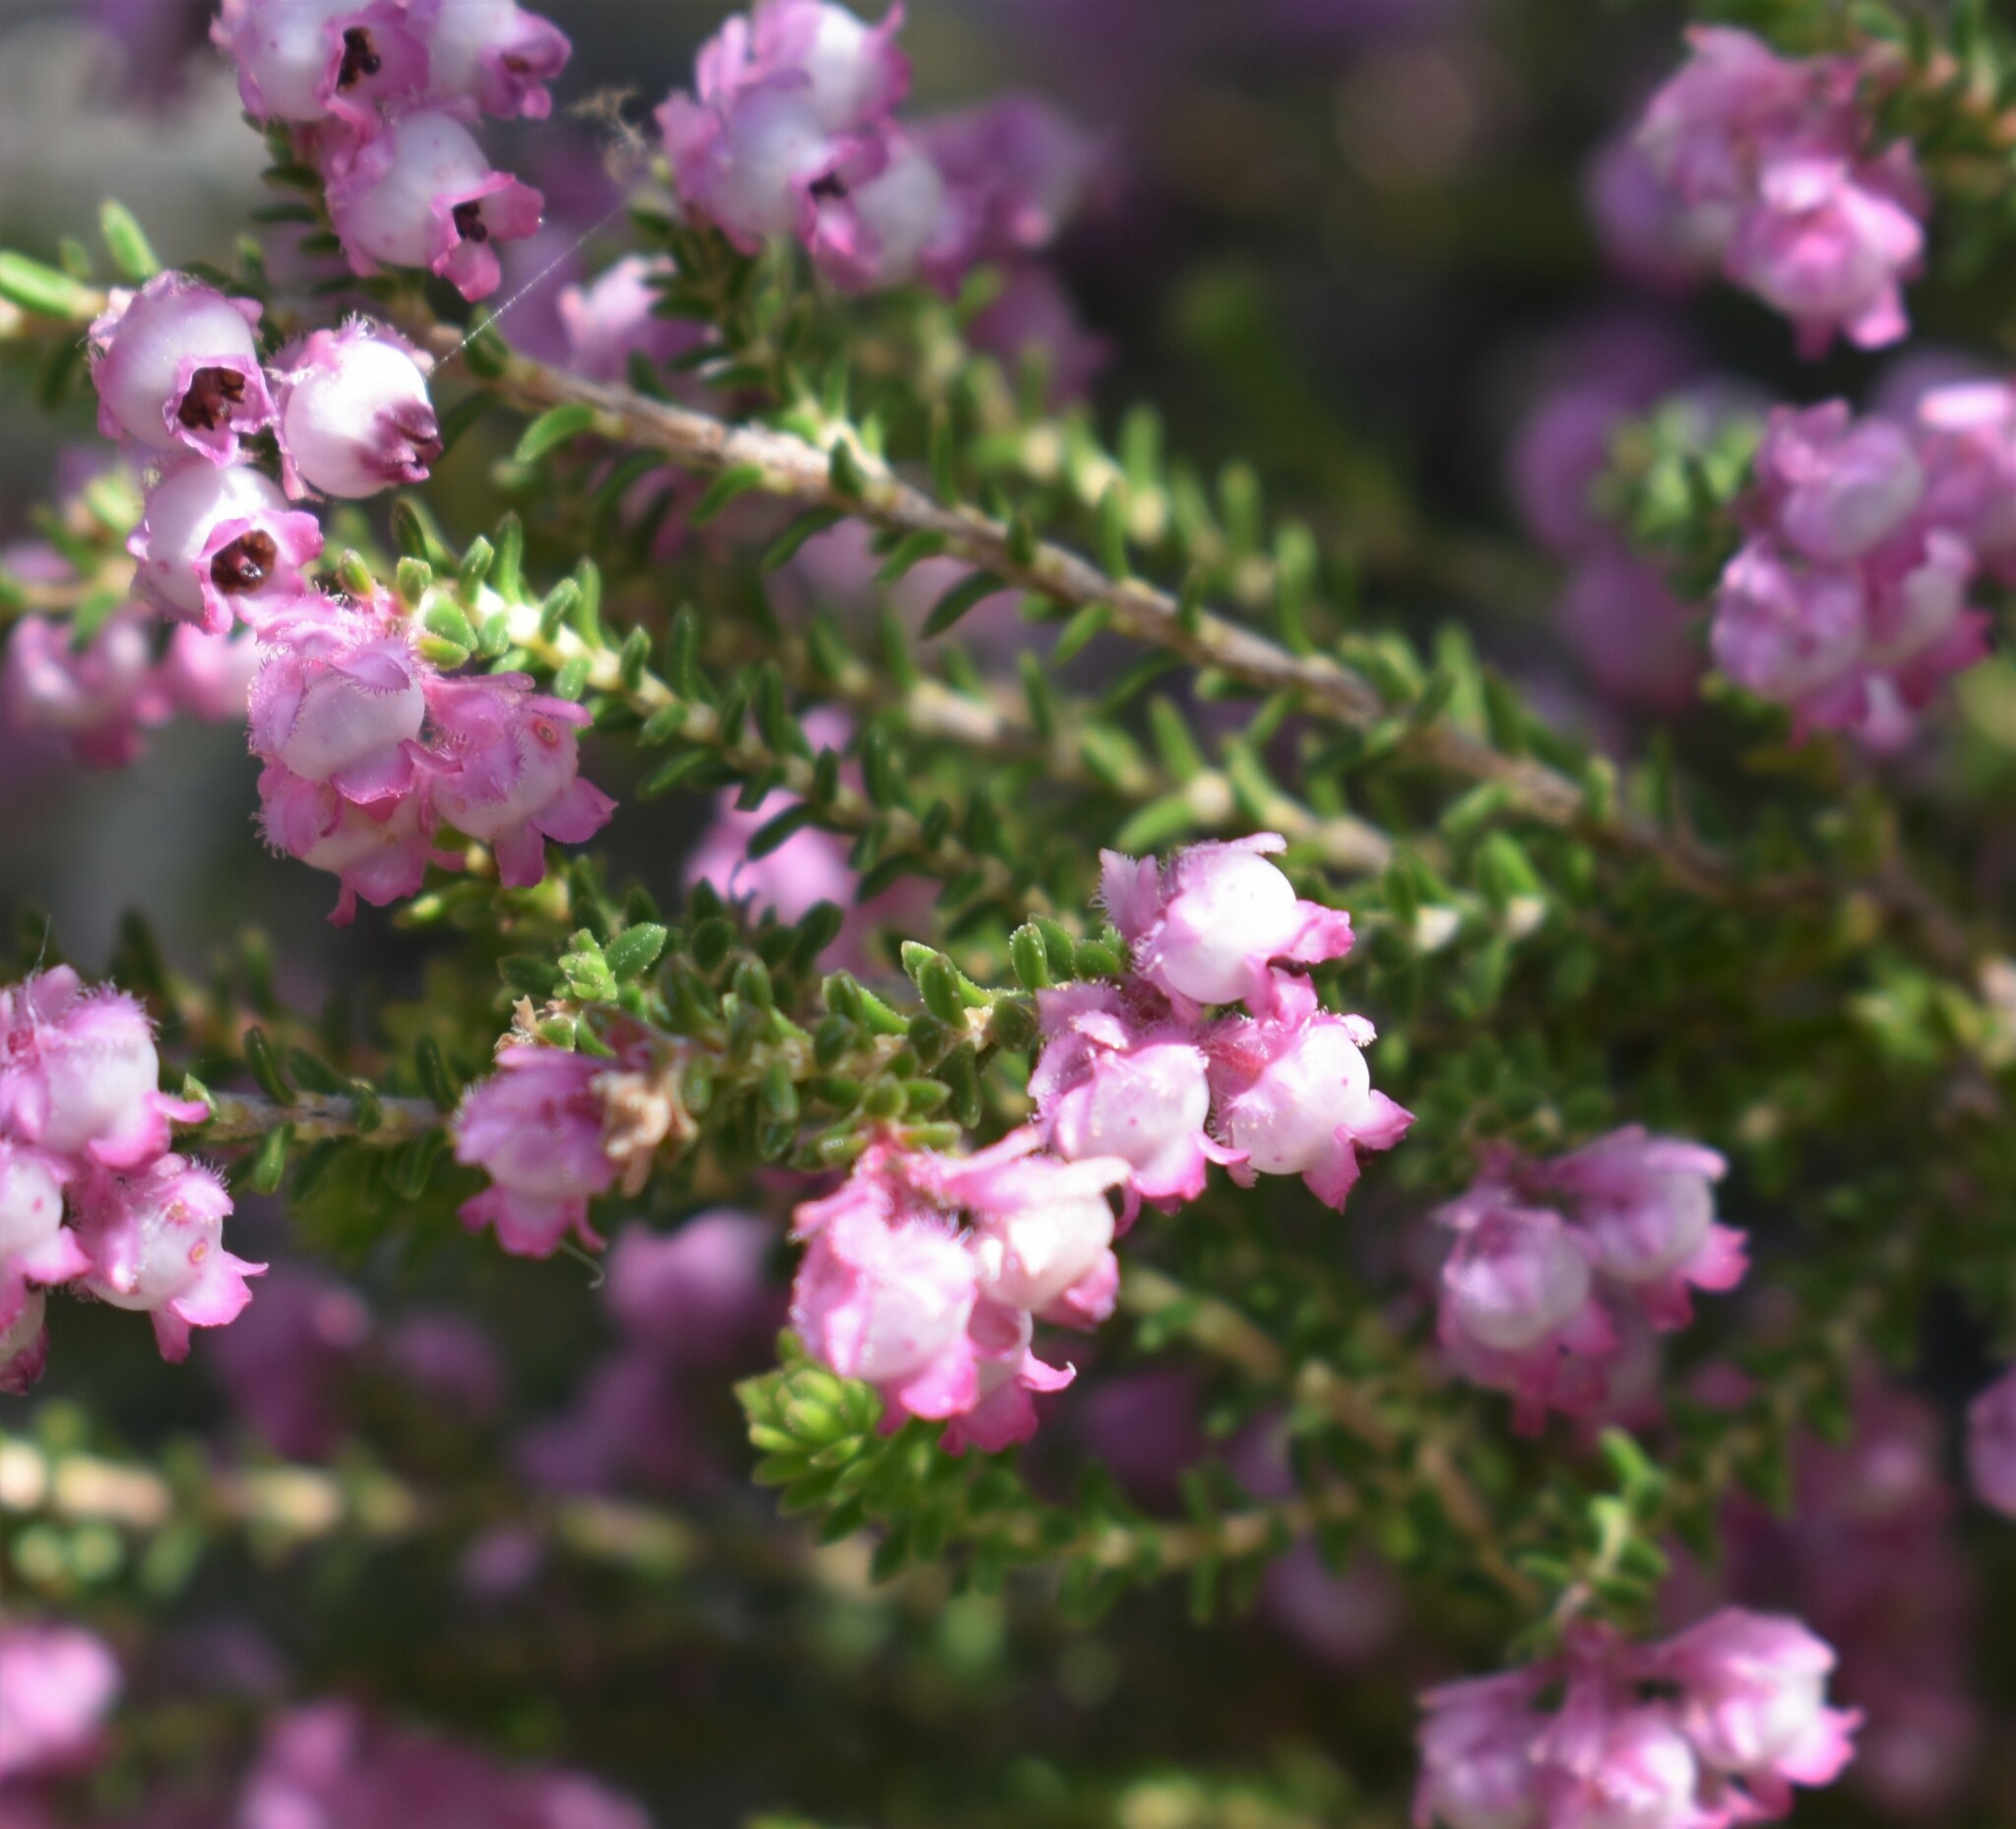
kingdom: Plantae
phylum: Tracheophyta
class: Magnoliopsida
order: Ericales
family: Ericaceae
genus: Erica
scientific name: Erica fimbriata
